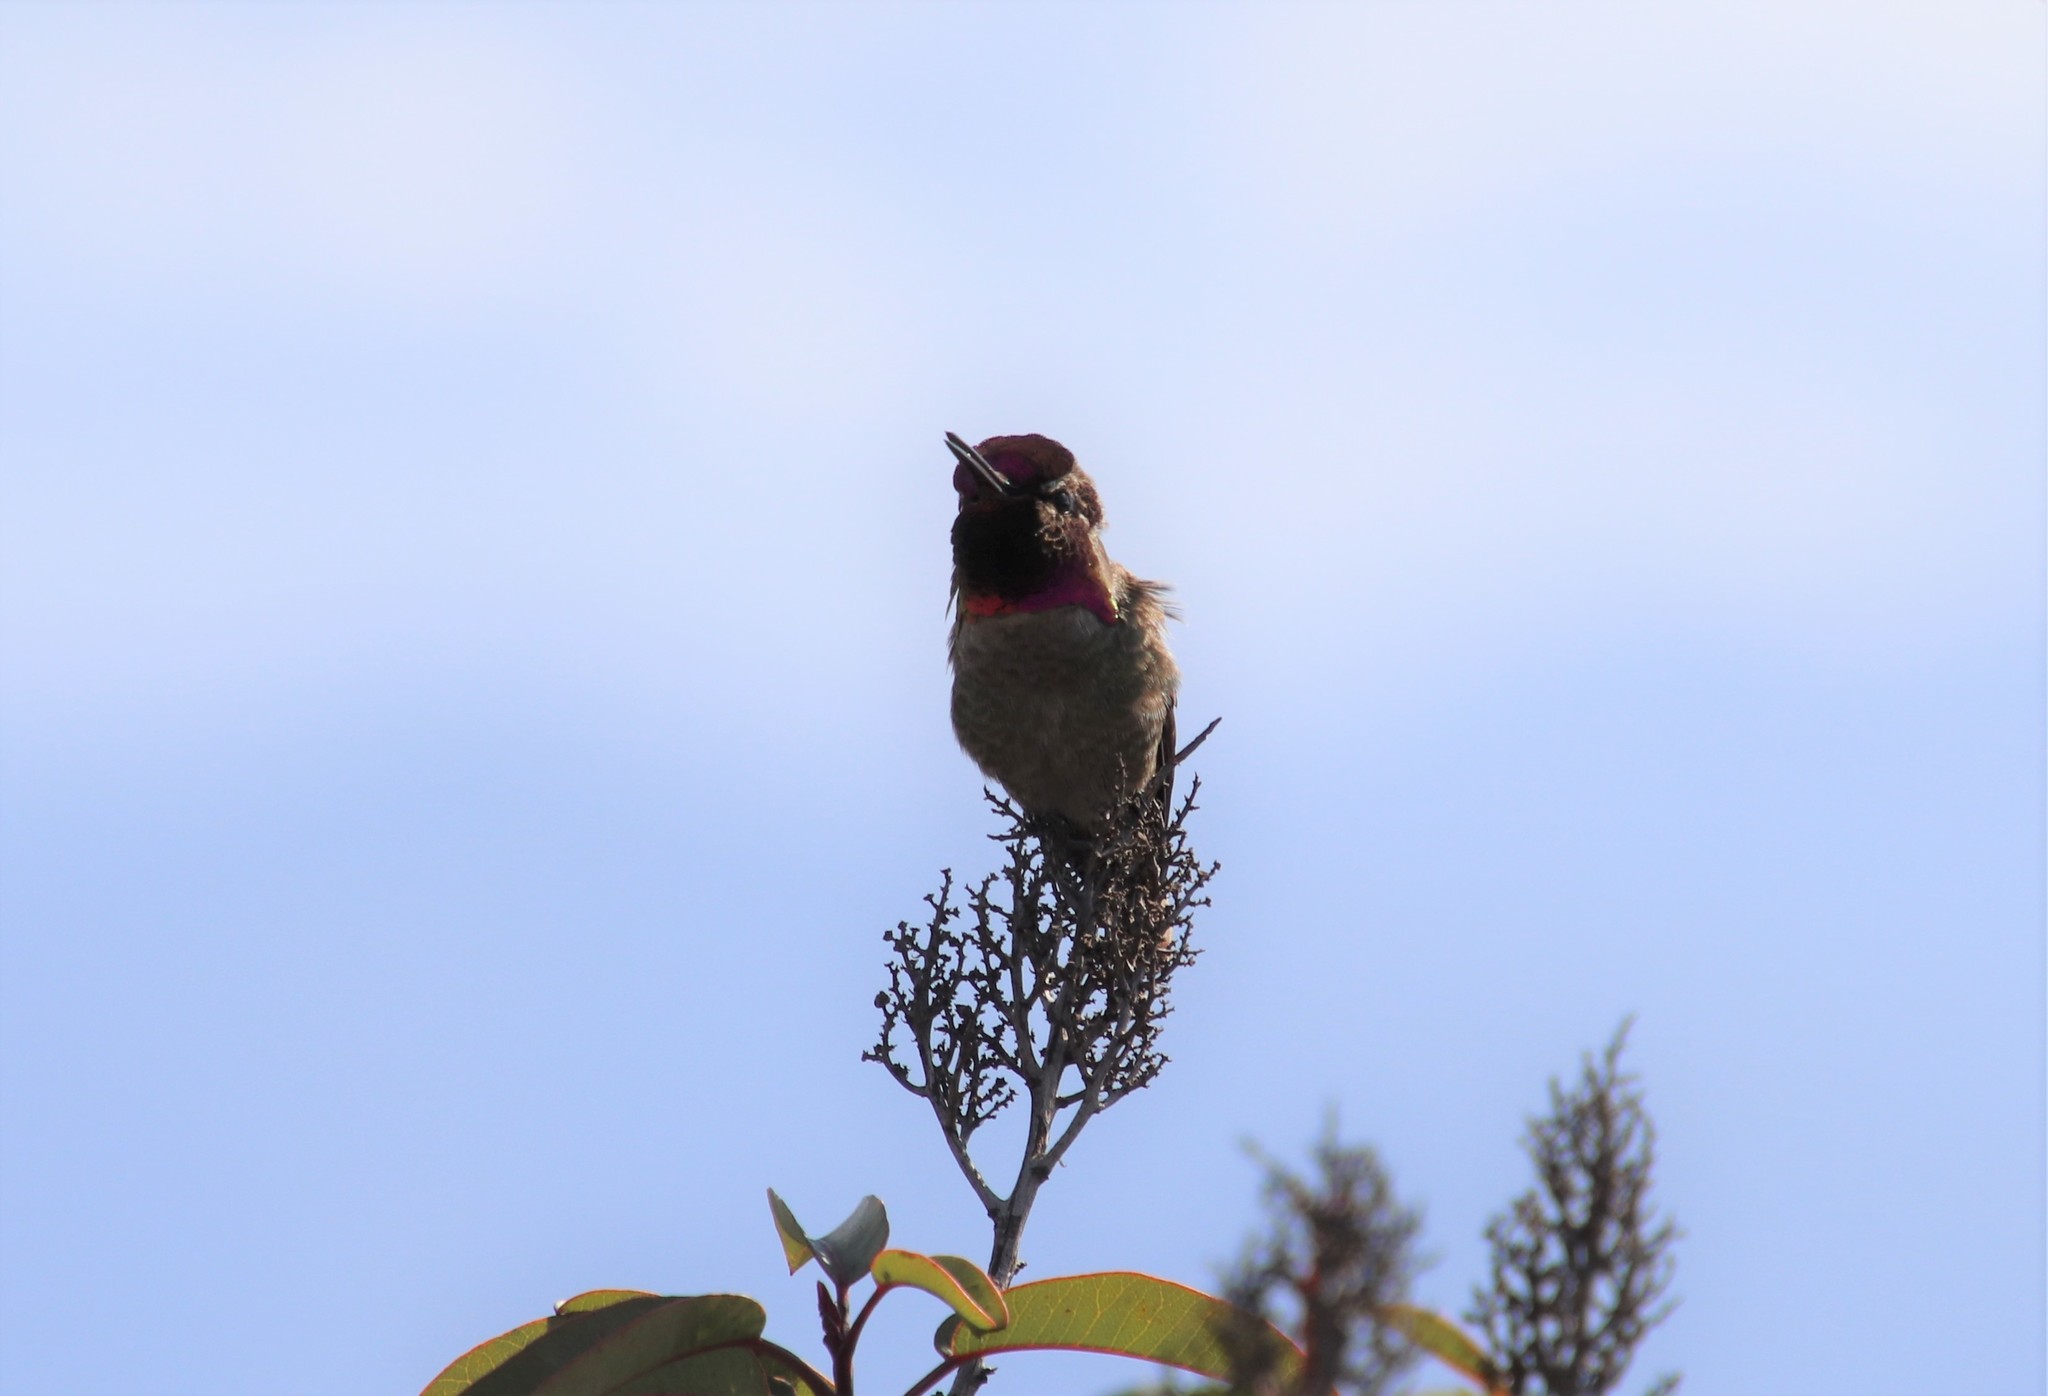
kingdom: Animalia
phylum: Chordata
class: Aves
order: Apodiformes
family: Trochilidae
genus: Calypte
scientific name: Calypte anna
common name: Anna's hummingbird
